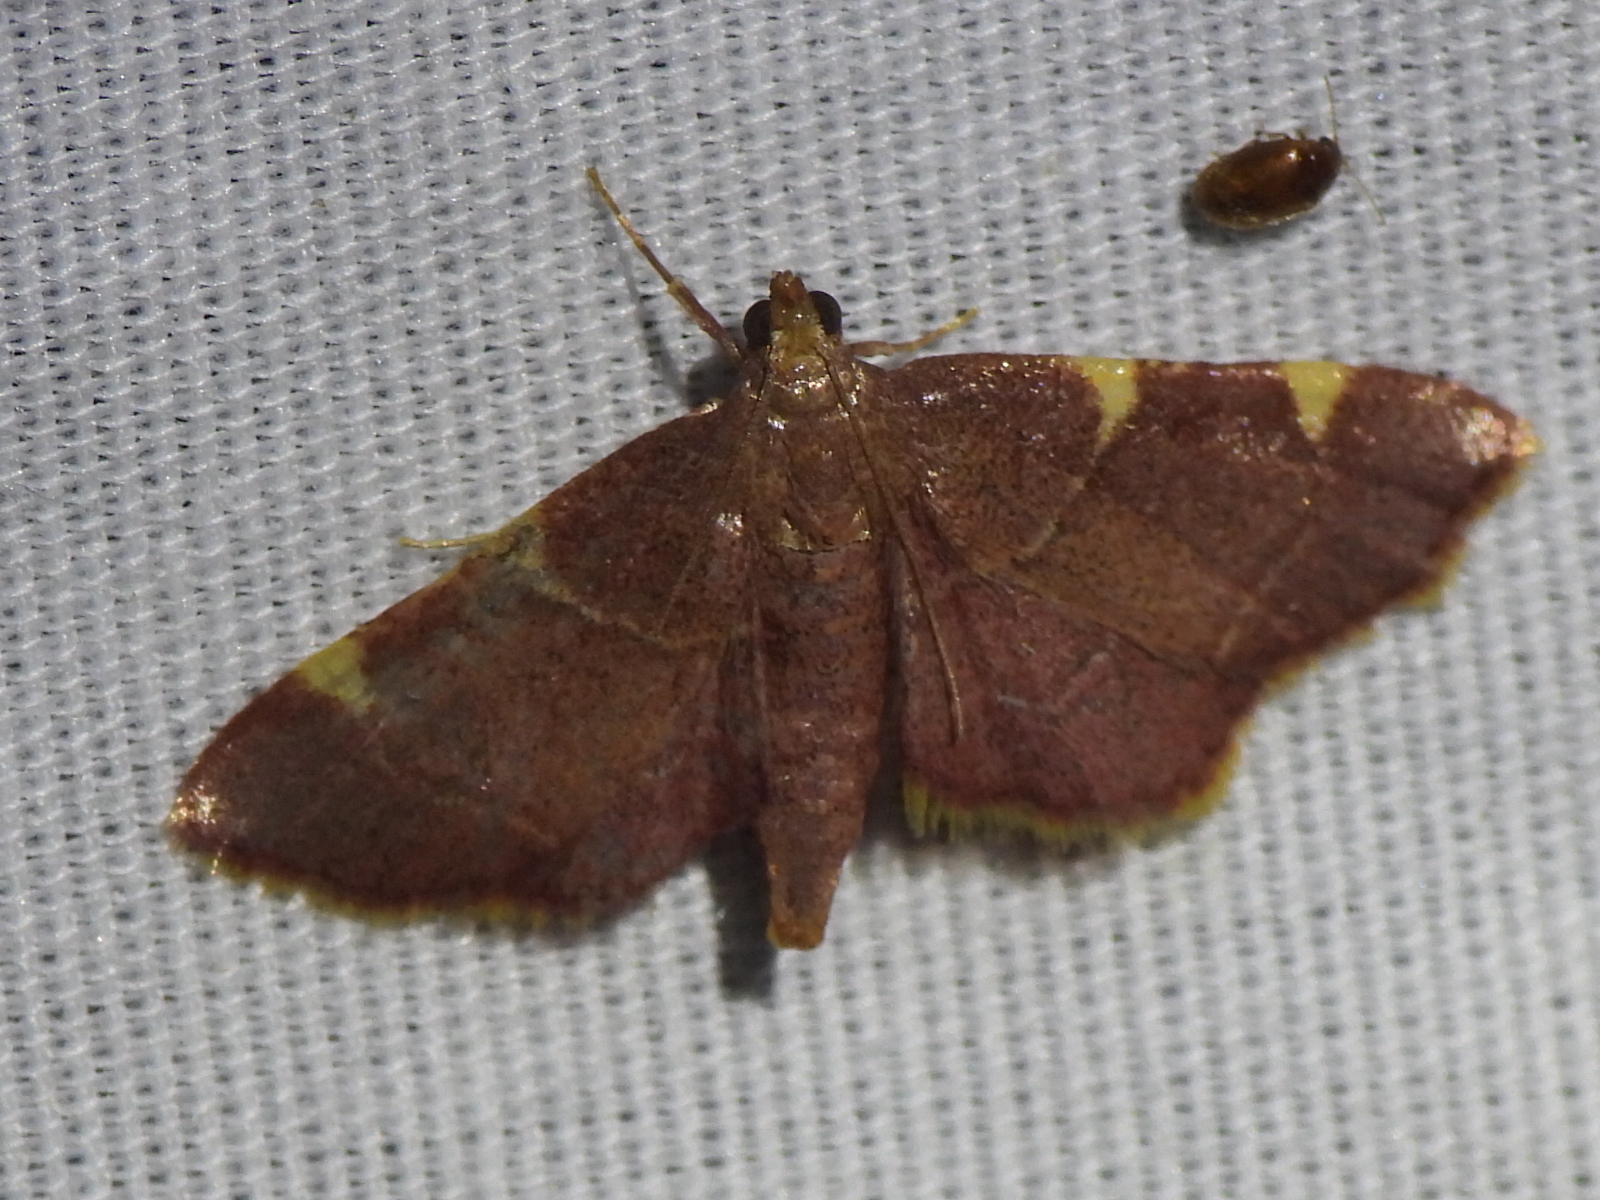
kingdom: Animalia
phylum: Arthropoda
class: Insecta
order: Lepidoptera
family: Pyralidae
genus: Hypsopygia
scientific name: Hypsopygia olinalis
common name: Yellow-fringed dolichomia moth
